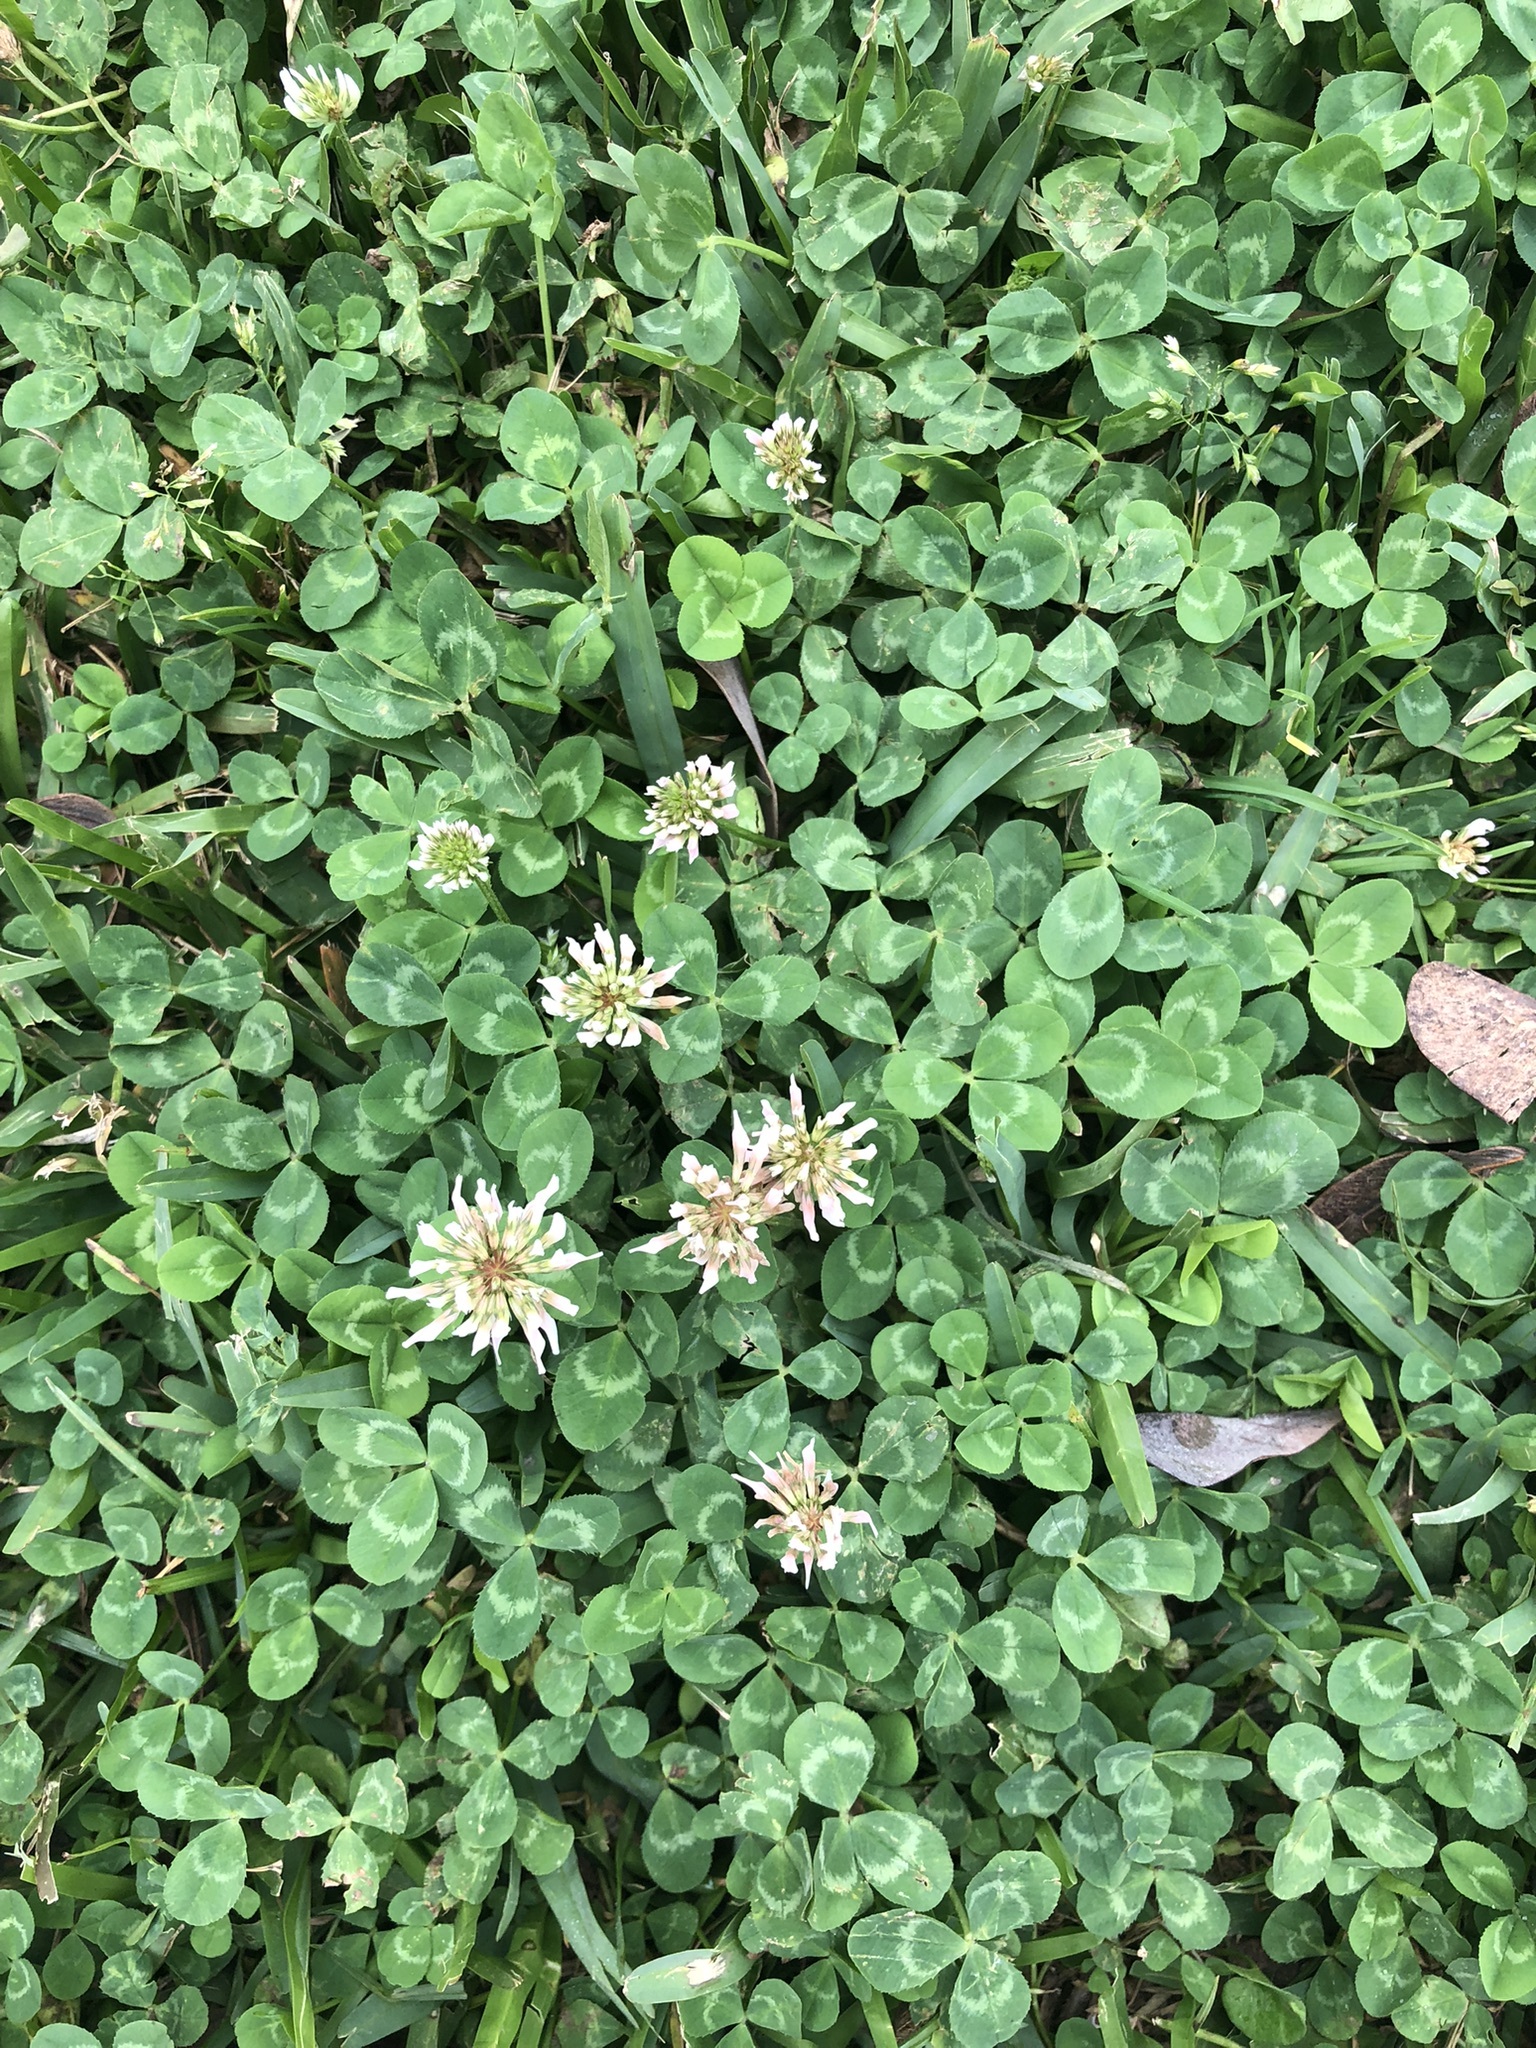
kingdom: Plantae
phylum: Tracheophyta
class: Magnoliopsida
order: Fabales
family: Fabaceae
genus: Trifolium
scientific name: Trifolium repens
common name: White clover
